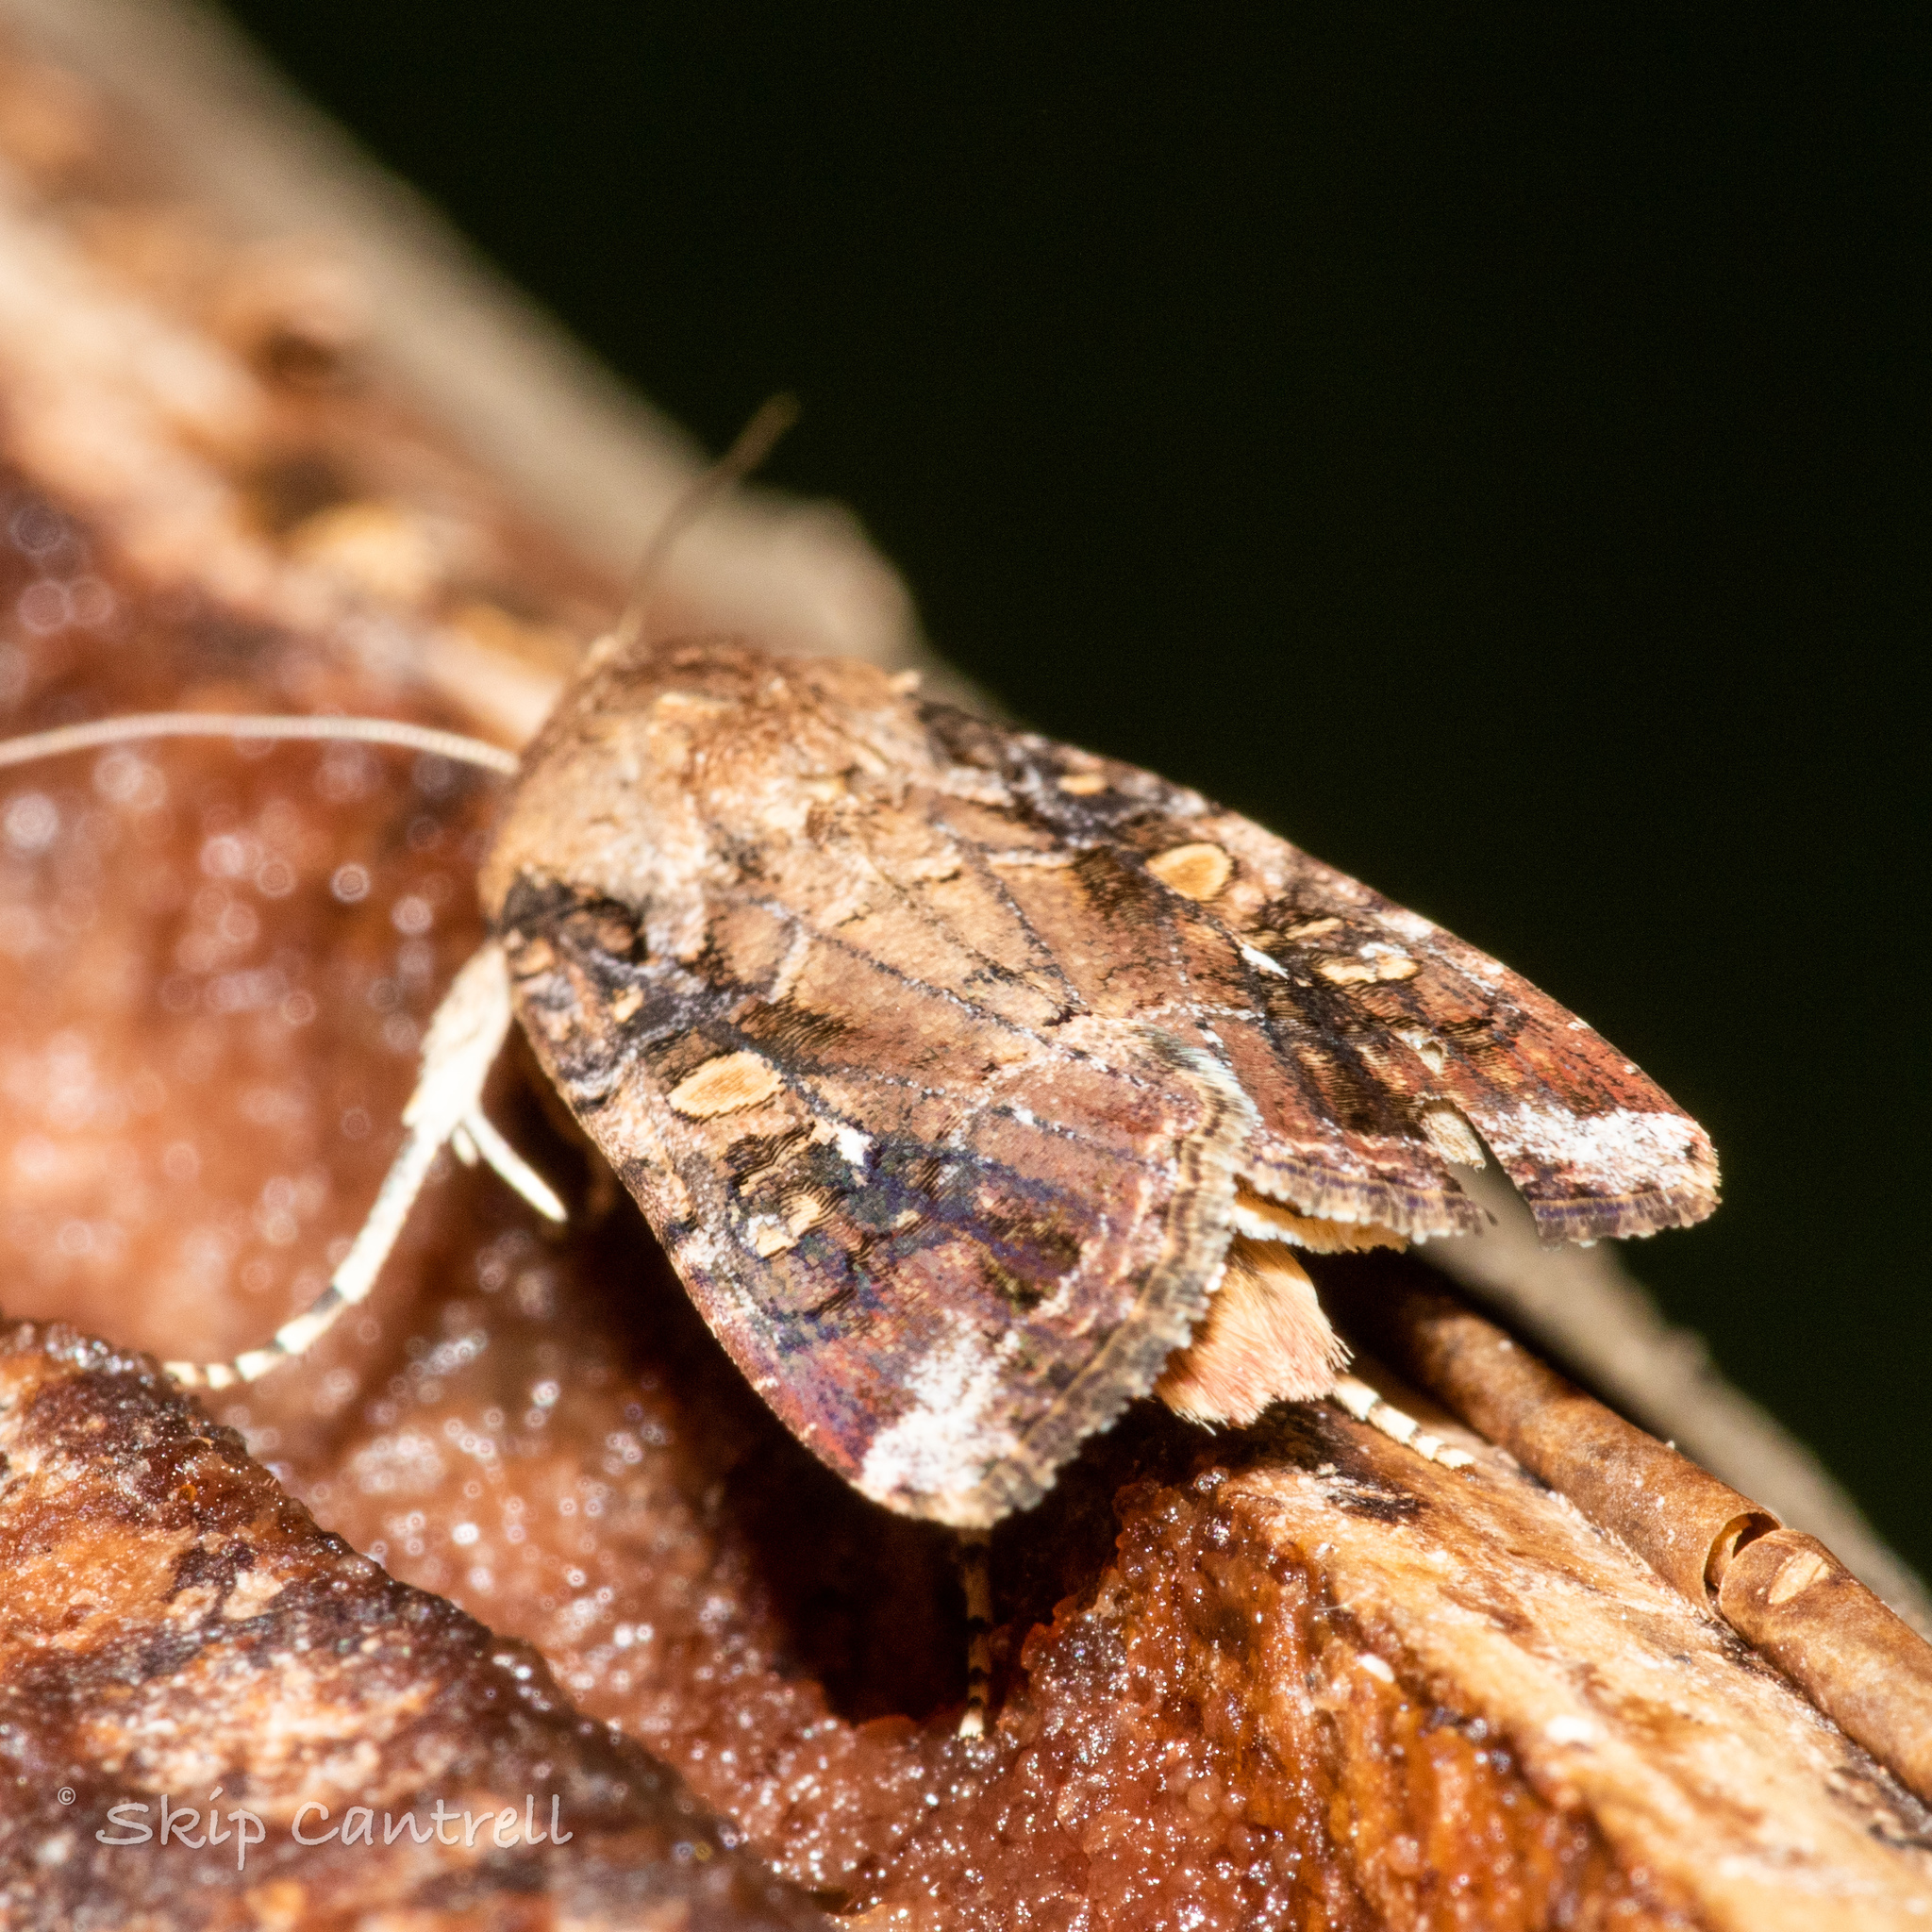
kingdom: Animalia
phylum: Arthropoda
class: Insecta
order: Lepidoptera
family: Noctuidae
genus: Spodoptera
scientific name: Spodoptera frugiperda
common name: Fall armyworm
